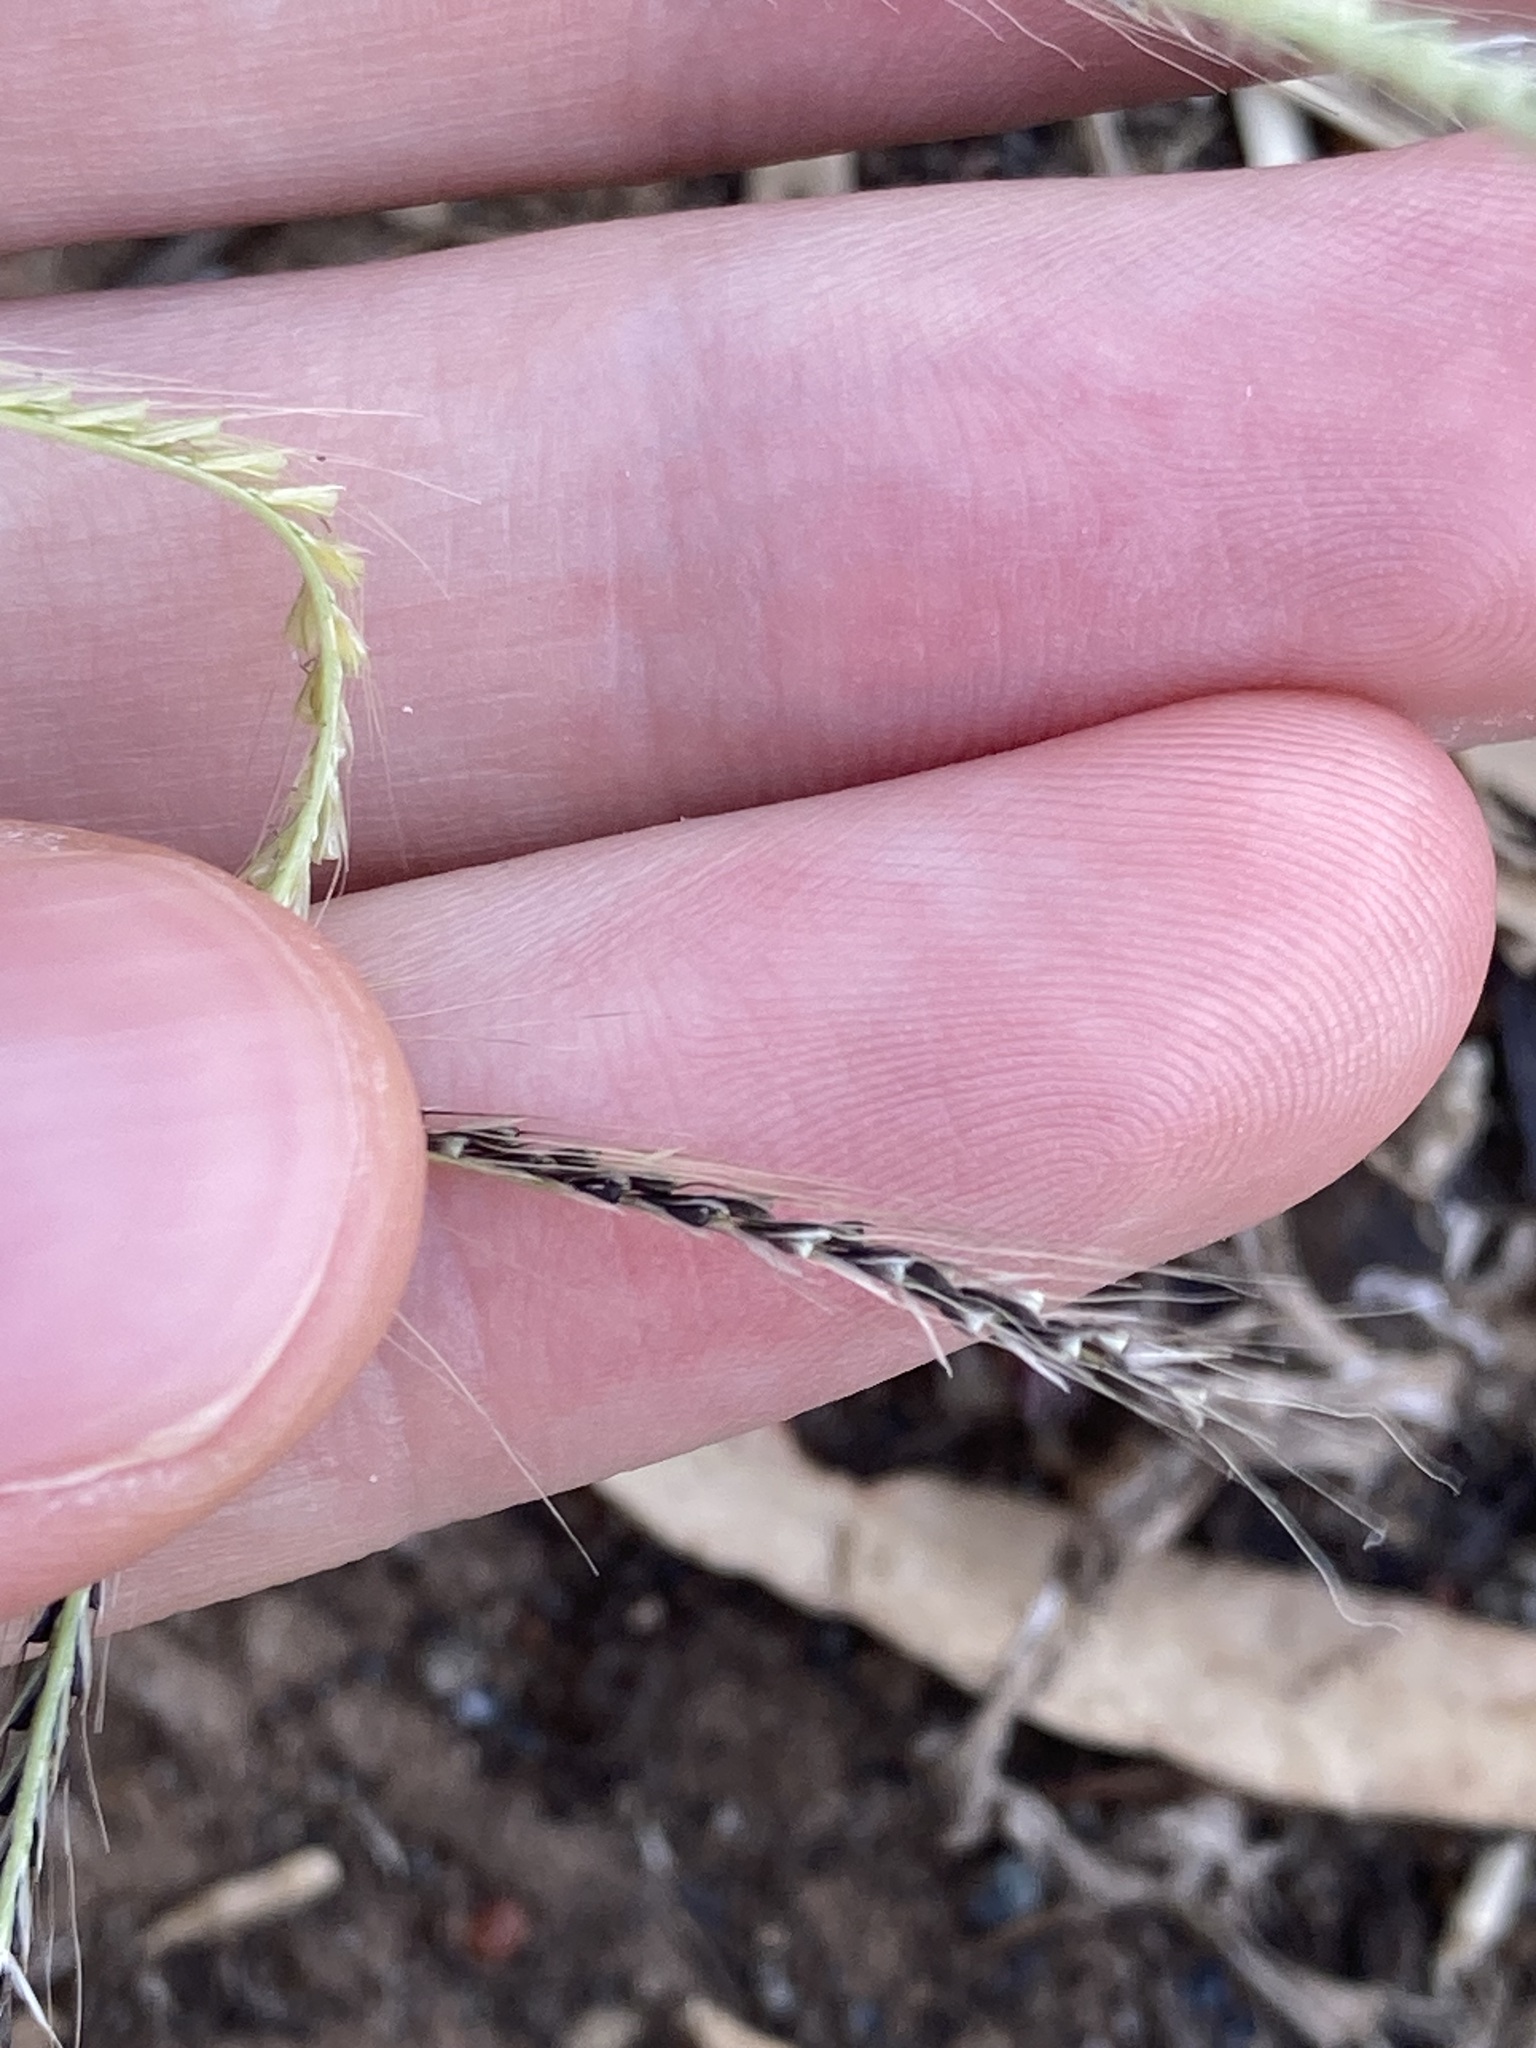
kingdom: Plantae
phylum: Tracheophyta
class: Liliopsida
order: Poales
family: Poaceae
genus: Chloris
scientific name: Chloris truncata
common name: Windmill-grass
